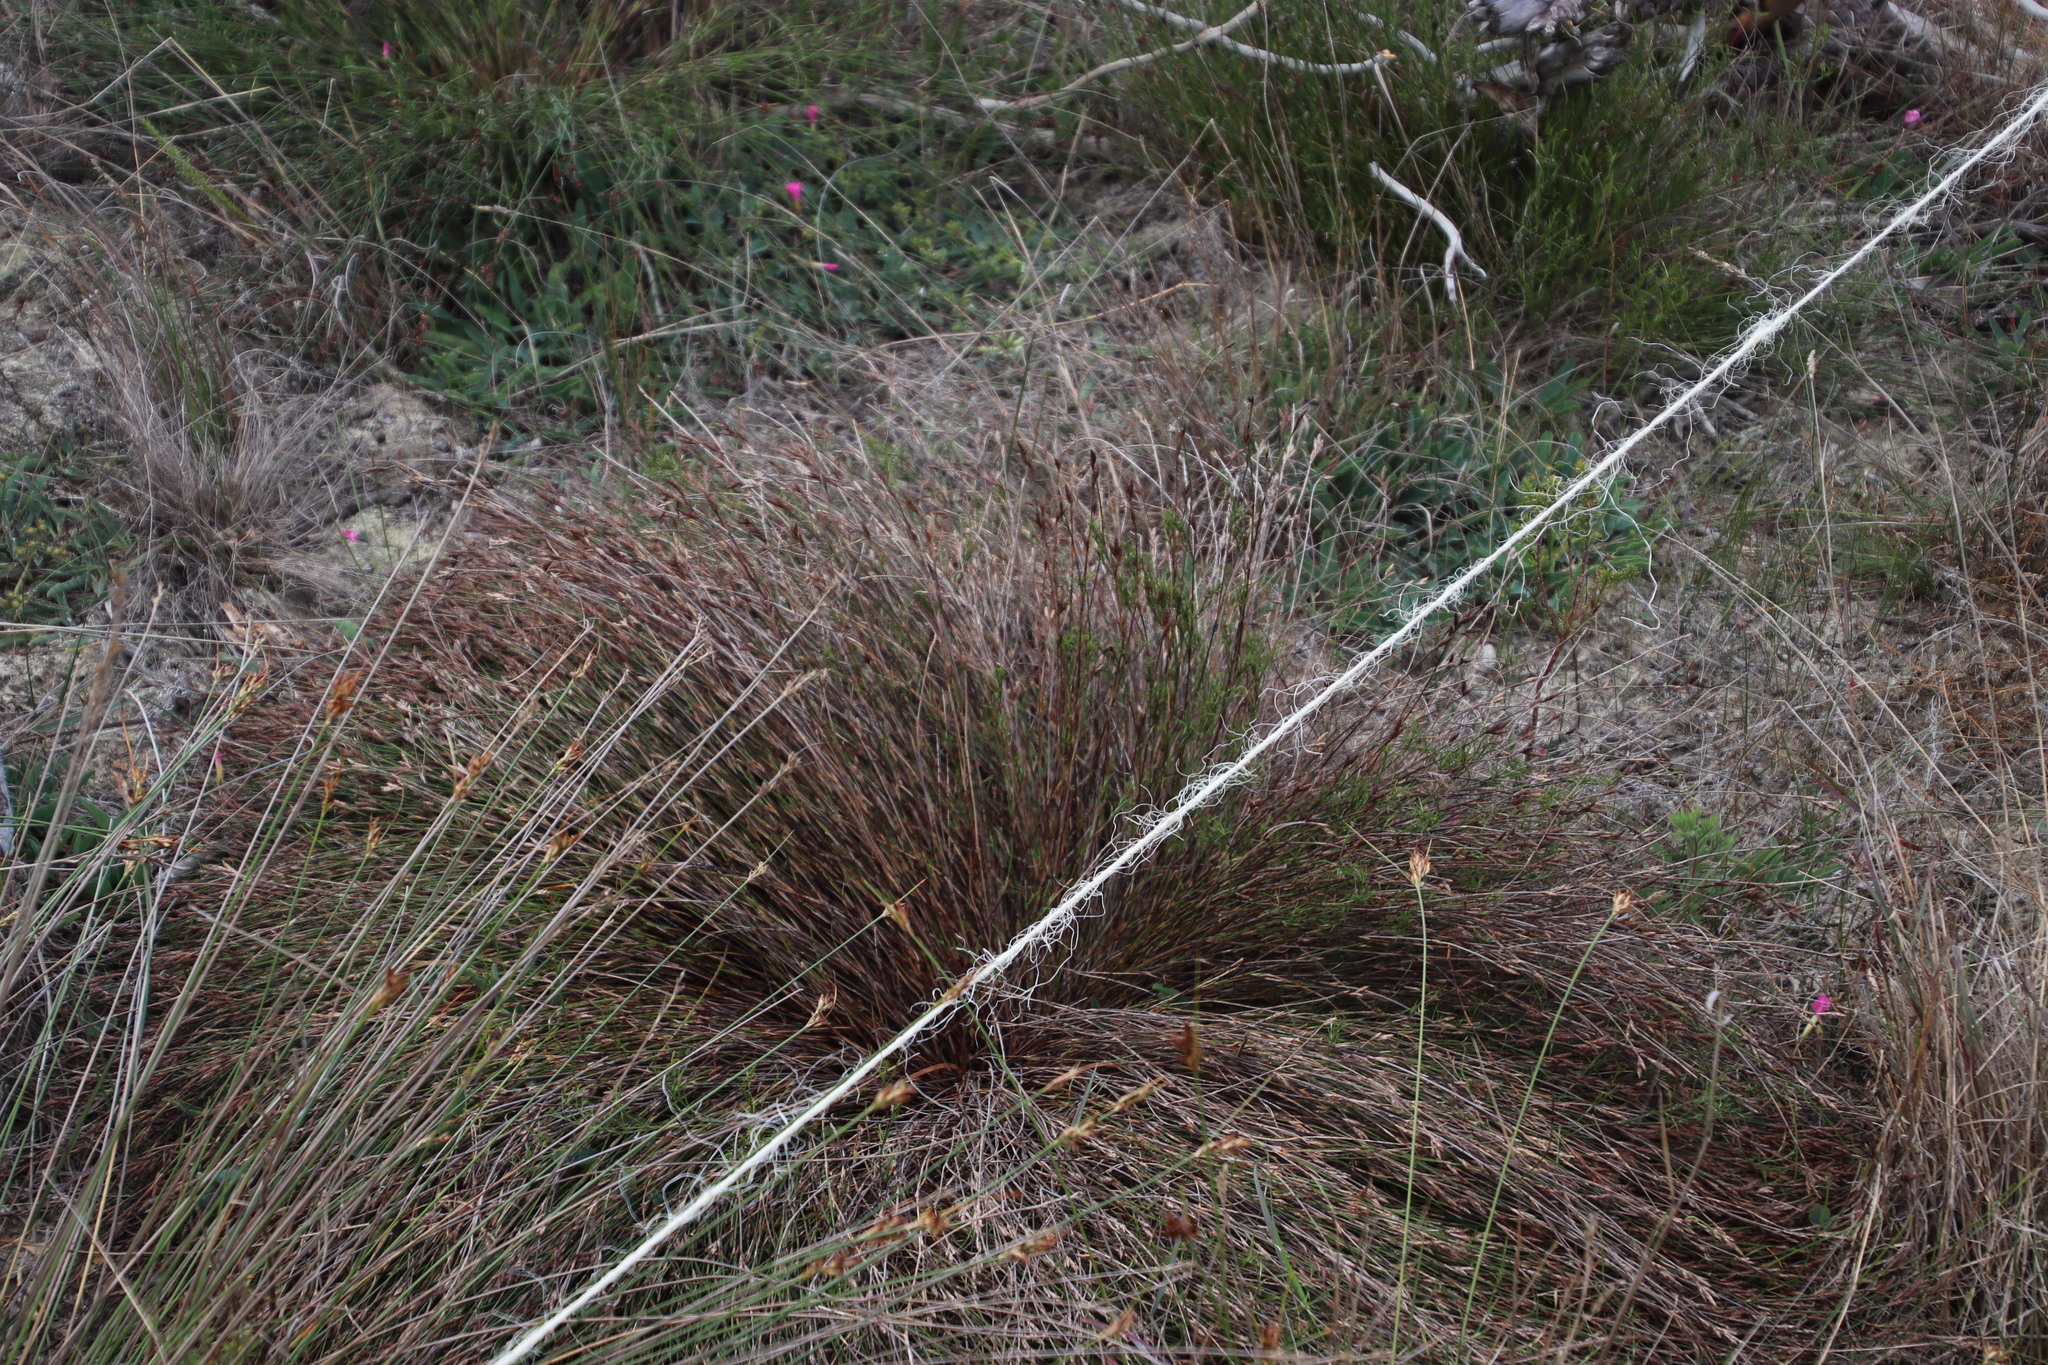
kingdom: Plantae
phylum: Tracheophyta
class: Liliopsida
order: Poales
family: Restionaceae
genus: Restio
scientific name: Restio capensis
